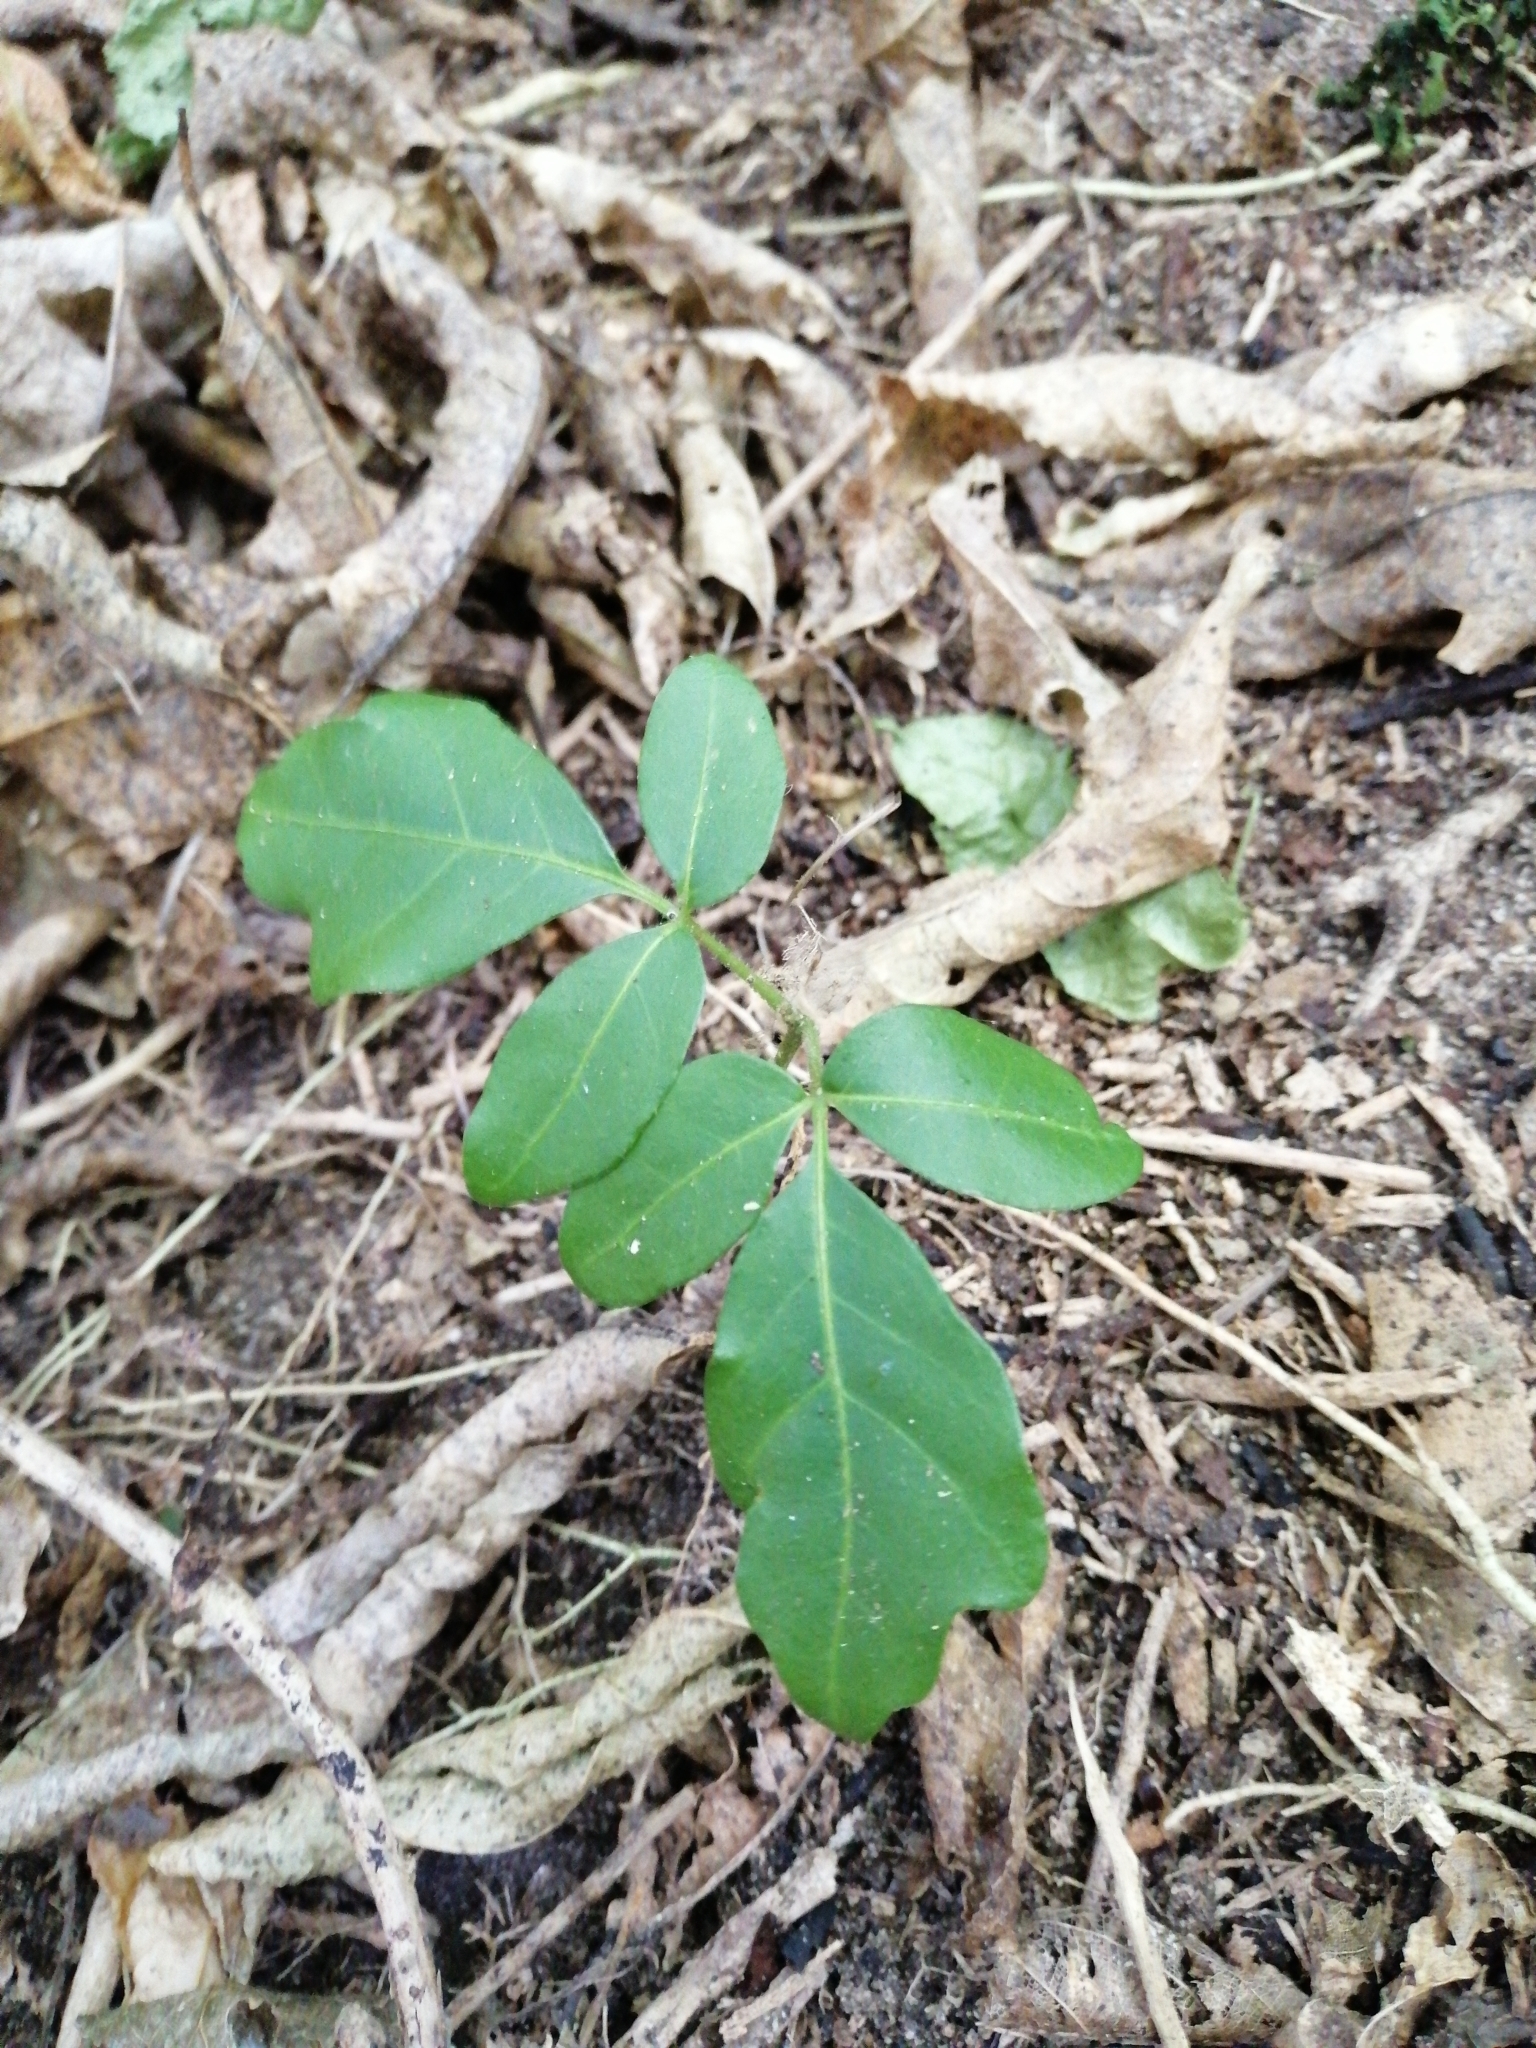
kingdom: Plantae
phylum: Tracheophyta
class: Magnoliopsida
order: Sapindales
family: Meliaceae
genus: Didymocheton
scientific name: Didymocheton spectabilis
